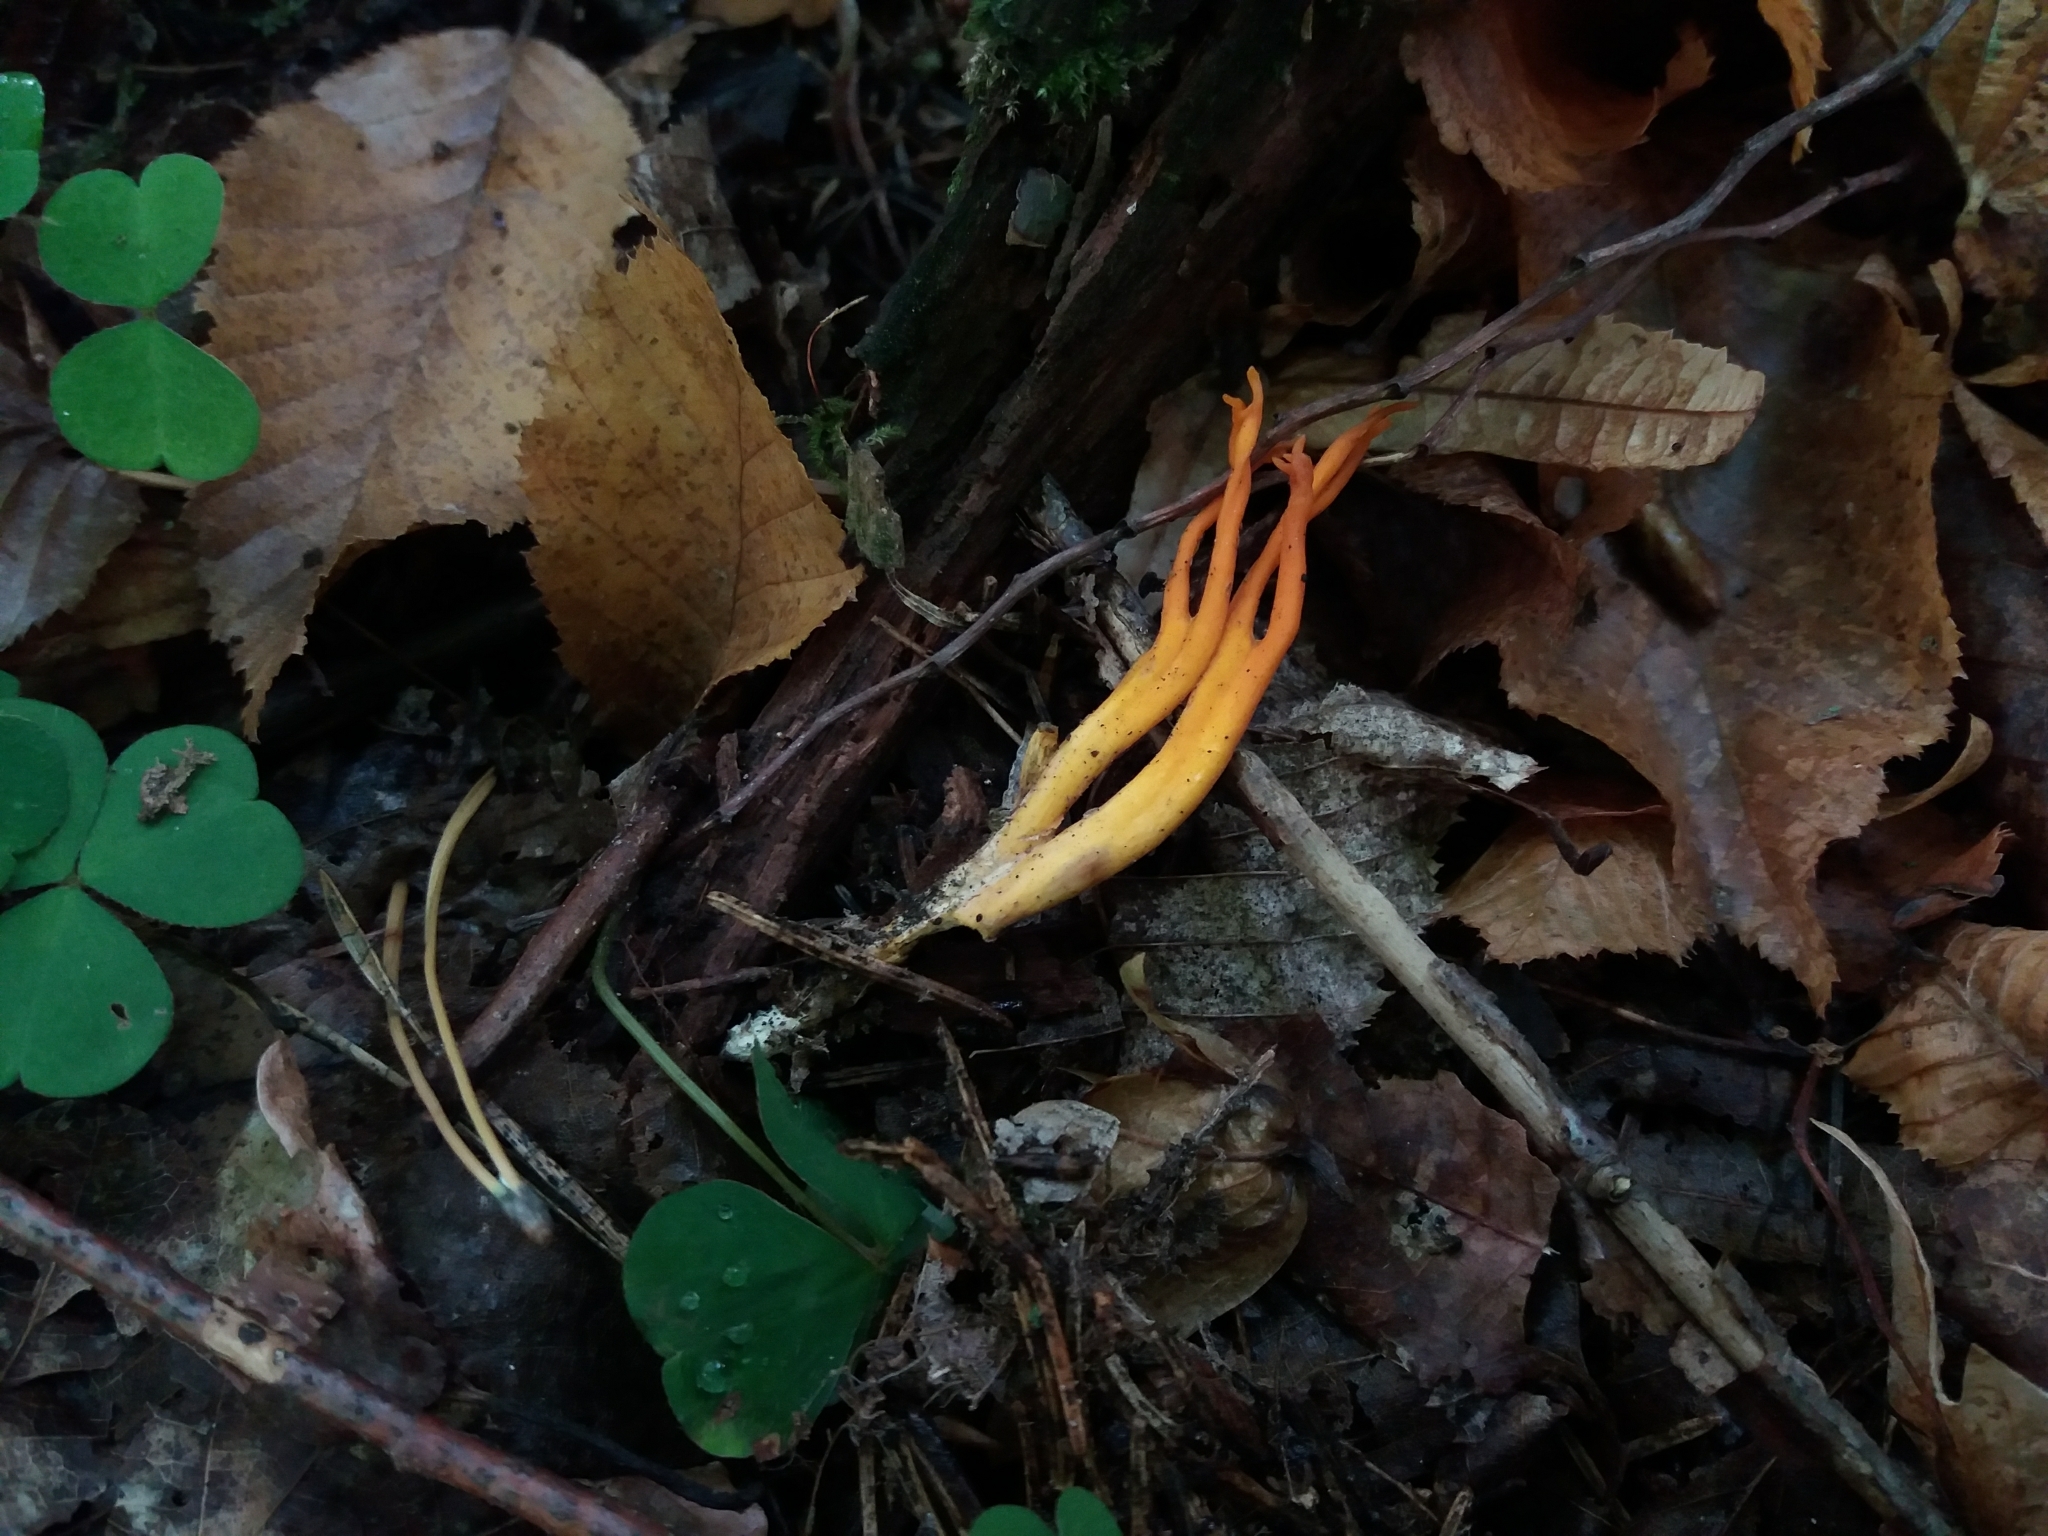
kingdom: Fungi
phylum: Basidiomycota
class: Dacrymycetes
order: Dacrymycetales
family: Dacrymycetaceae
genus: Calocera
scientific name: Calocera viscosa
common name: Yellow stagshorn
